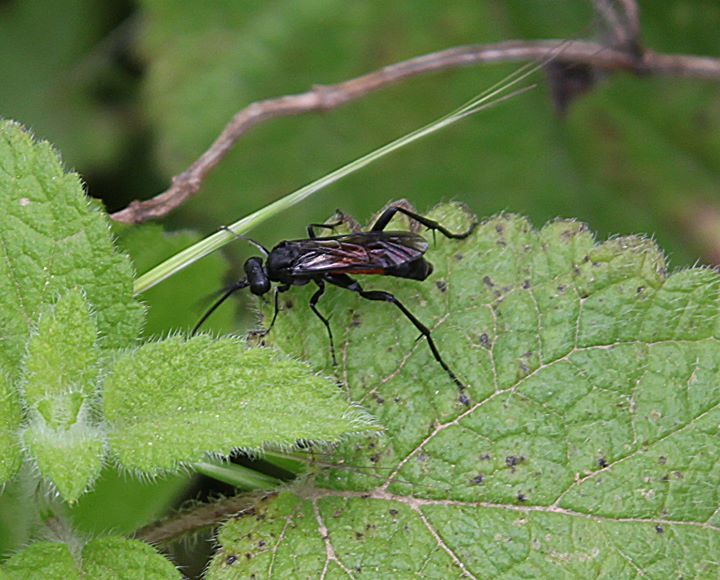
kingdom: Animalia
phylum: Arthropoda
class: Insecta
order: Hymenoptera
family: Tenthredinidae
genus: Macrophya
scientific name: Macrophya annulata
